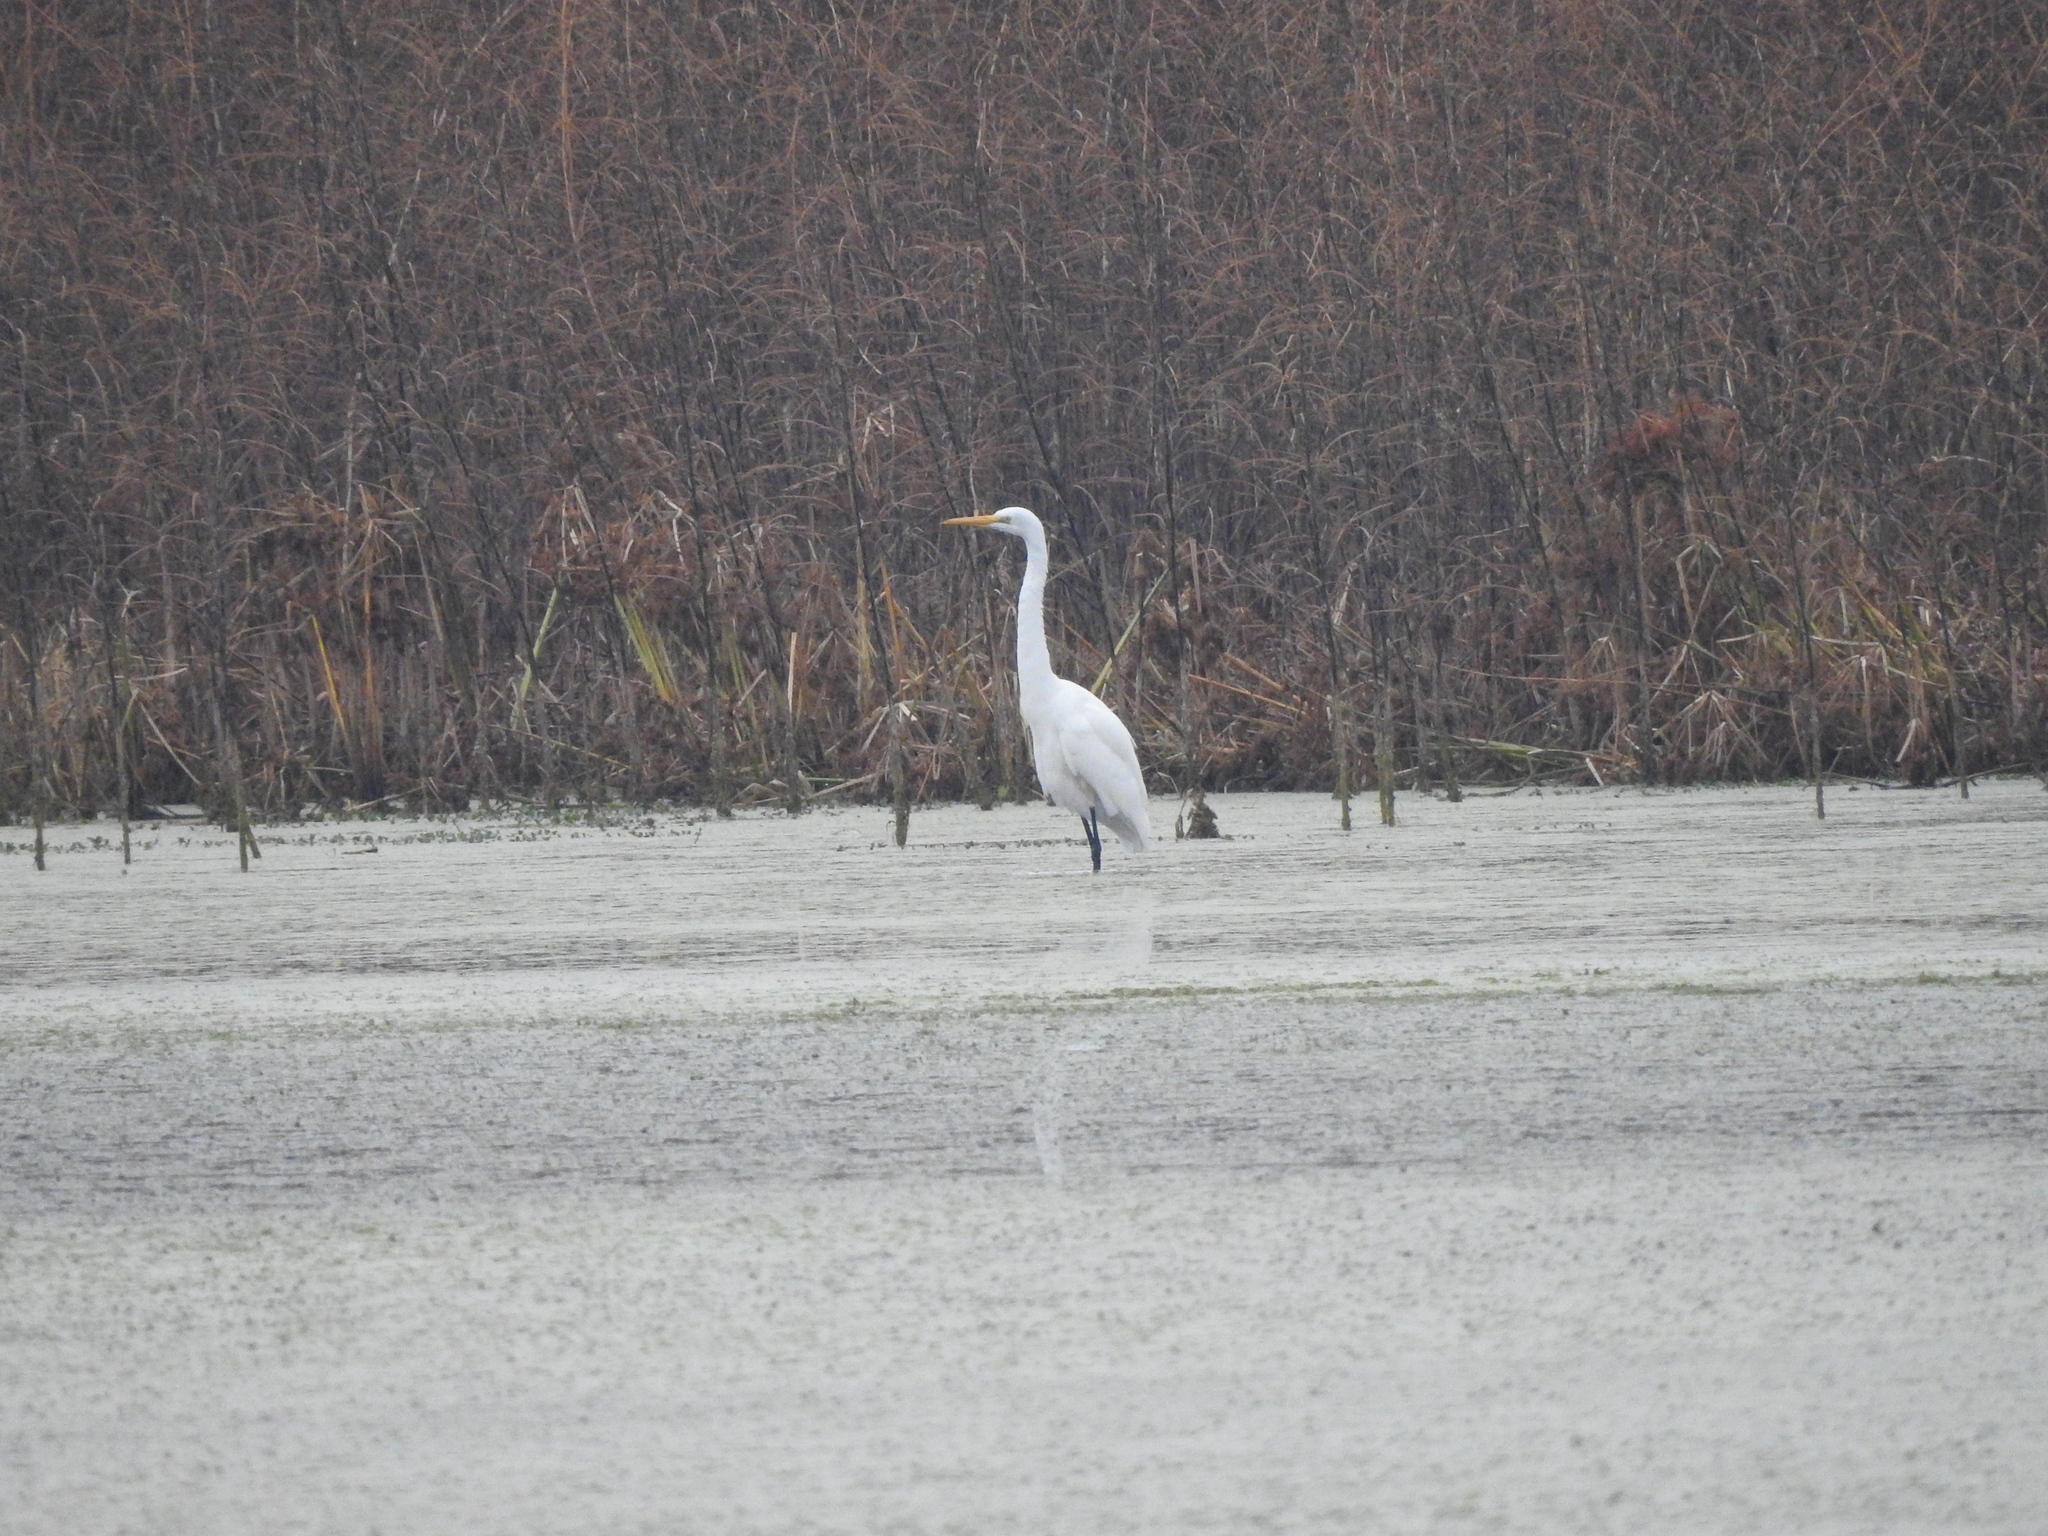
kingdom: Animalia
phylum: Chordata
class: Aves
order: Pelecaniformes
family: Ardeidae
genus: Ardea
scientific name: Ardea alba
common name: Great egret
